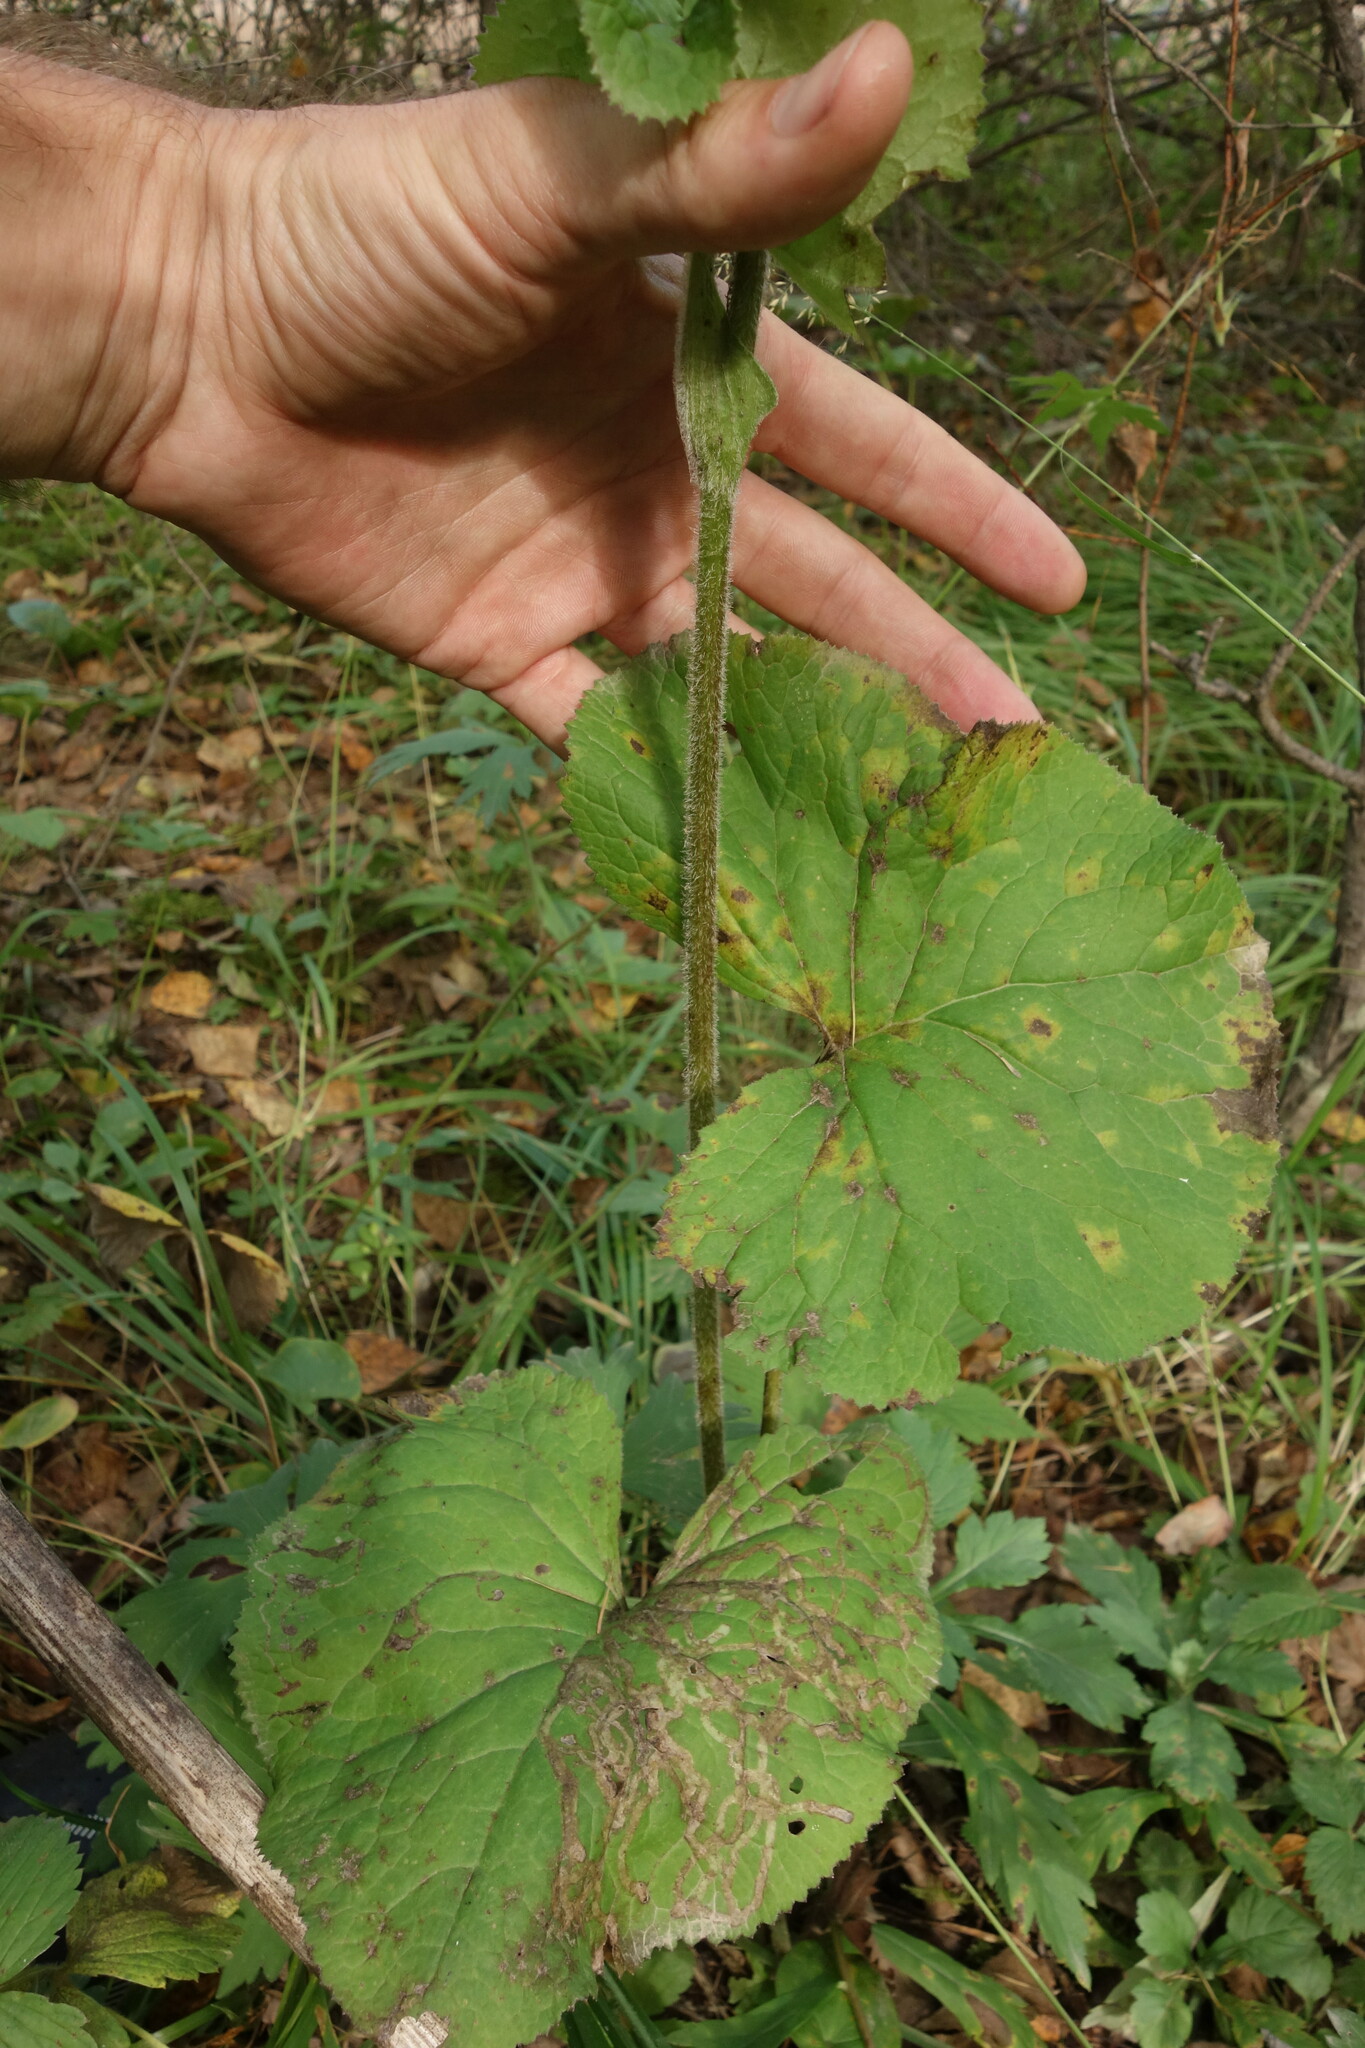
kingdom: Plantae
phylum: Tracheophyta
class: Magnoliopsida
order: Asterales
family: Asteraceae
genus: Ligularia
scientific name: Ligularia sibirica
